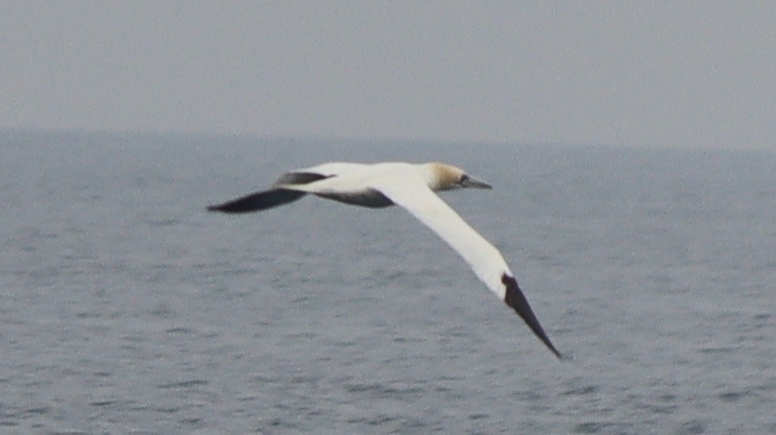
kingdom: Animalia
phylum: Chordata
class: Aves
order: Suliformes
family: Sulidae
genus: Morus
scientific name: Morus bassanus
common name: Northern gannet
